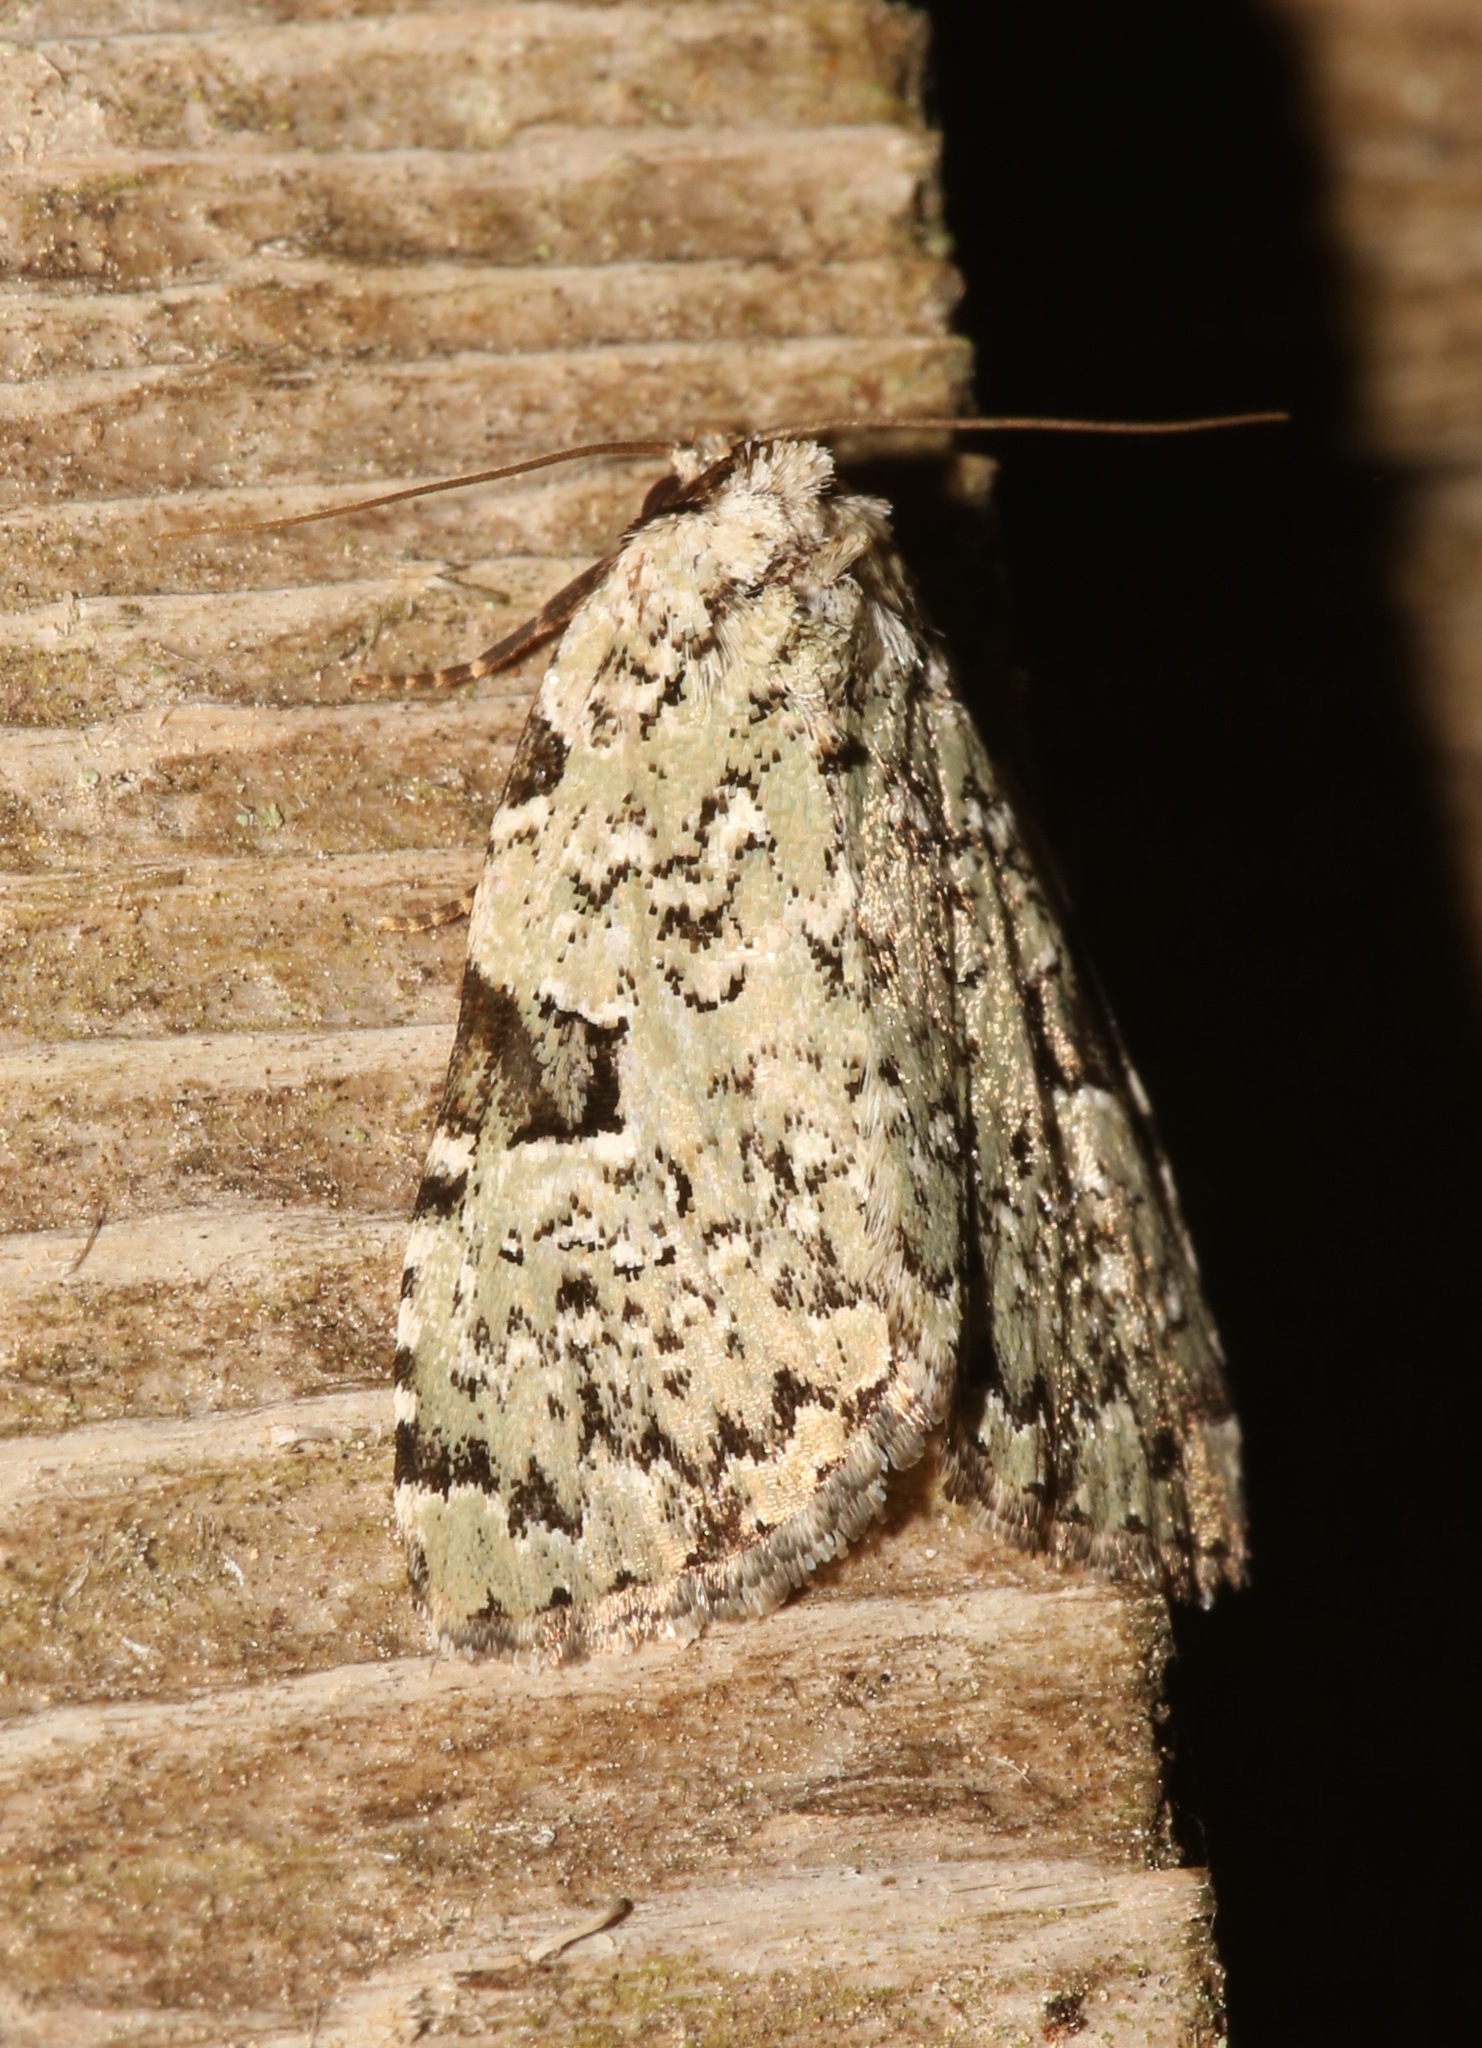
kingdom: Animalia
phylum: Arthropoda
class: Insecta
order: Lepidoptera
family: Noctuidae
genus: Leuconycta
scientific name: Leuconycta diphteroides
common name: Green leuconycta moth
